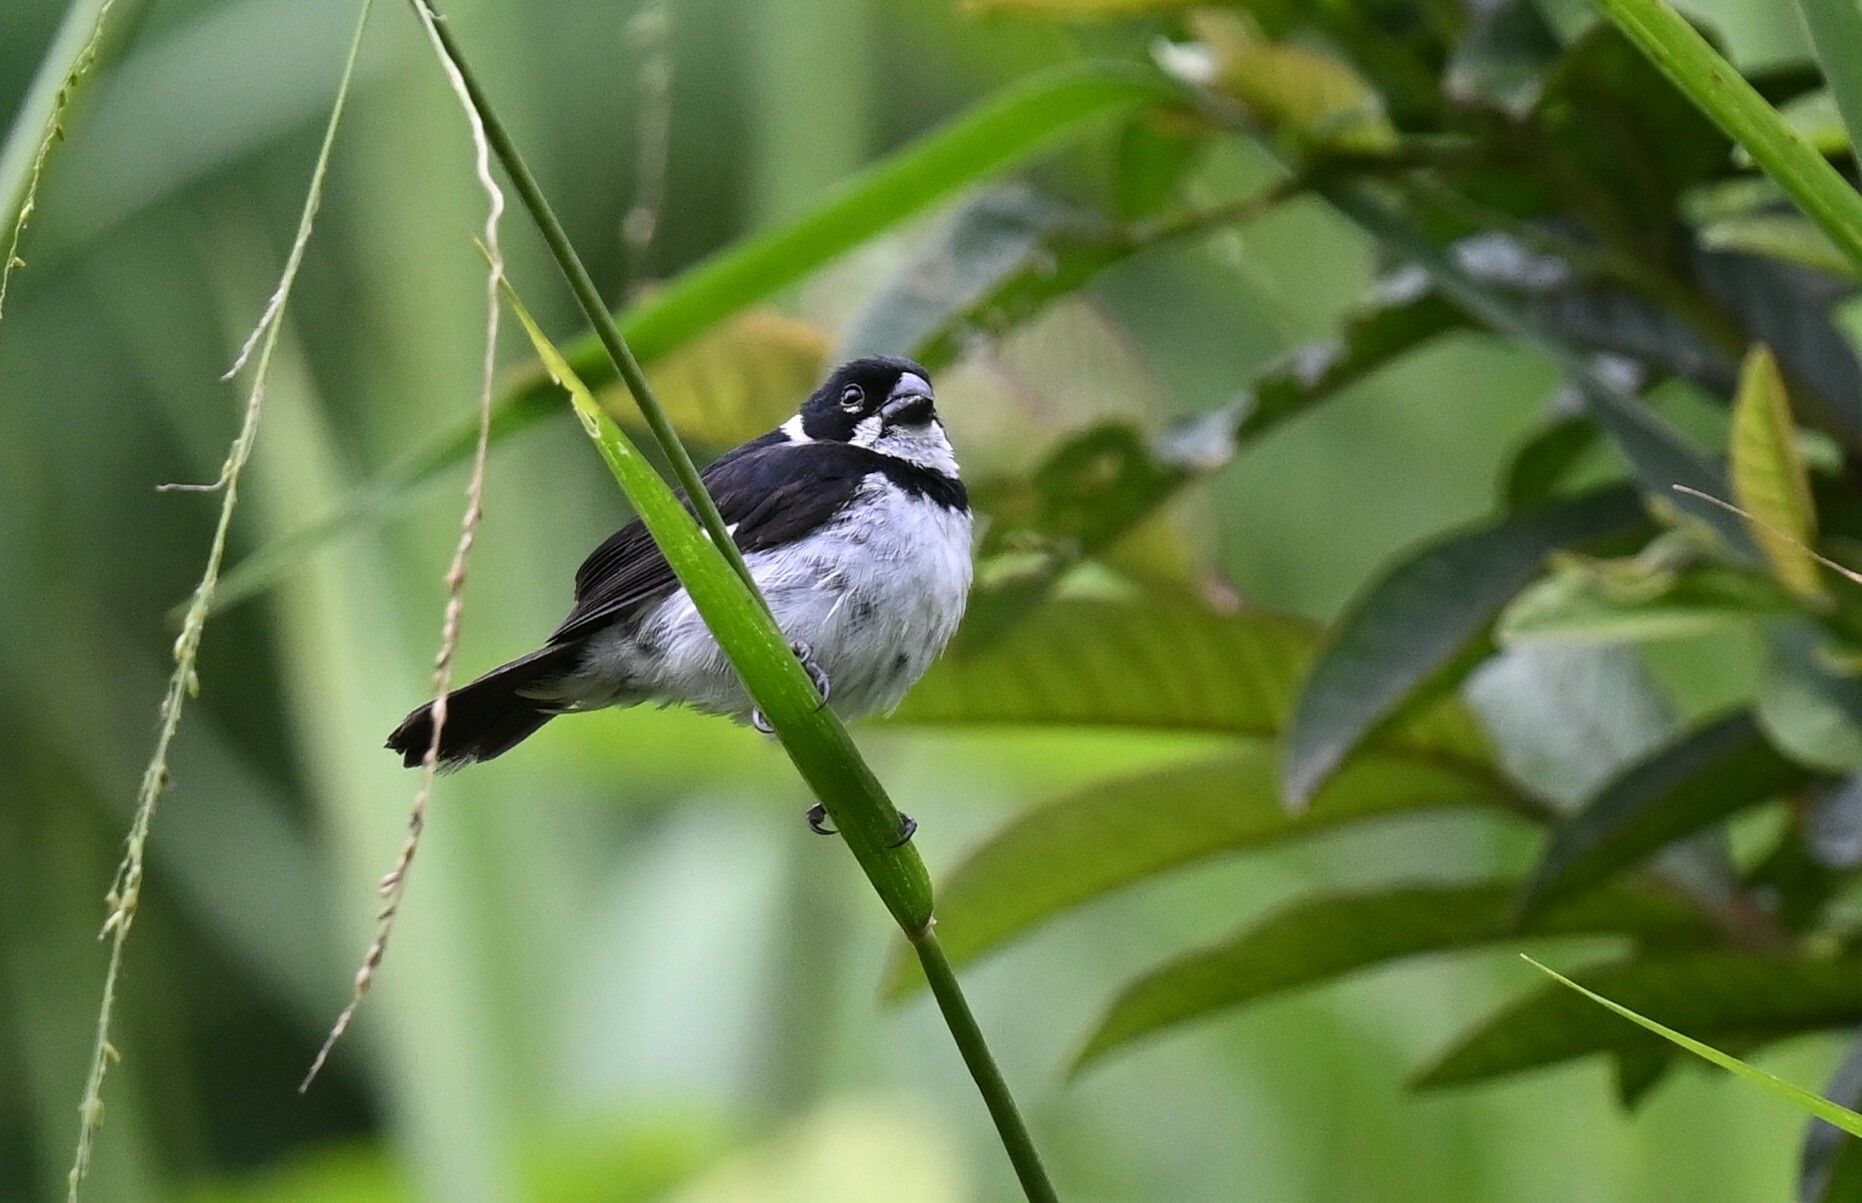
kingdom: Animalia
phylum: Chordata
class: Aves
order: Passeriformes
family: Thraupidae
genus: Sporophila
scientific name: Sporophila corvina
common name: Variable seedeater
